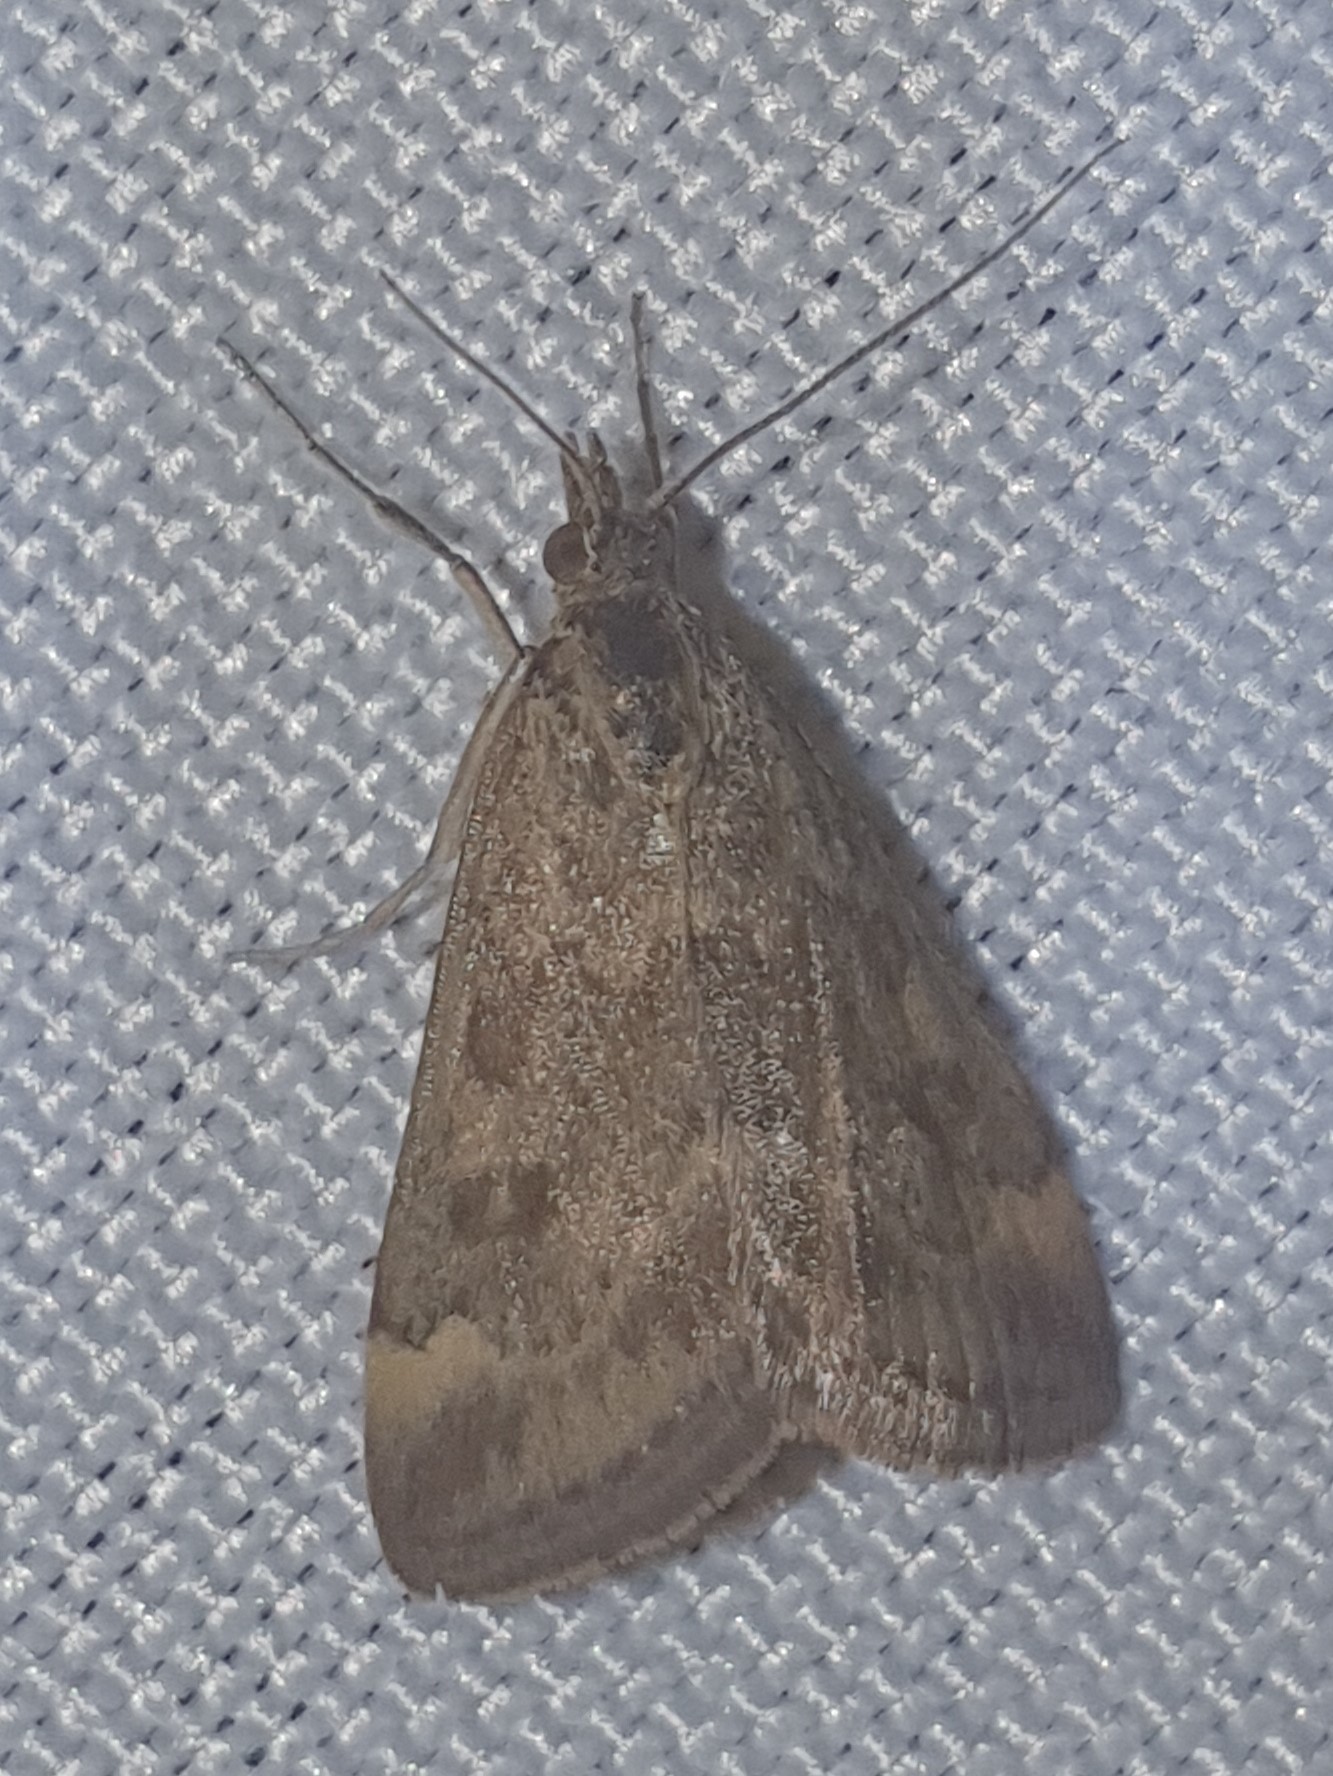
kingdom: Animalia
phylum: Arthropoda
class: Insecta
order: Lepidoptera
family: Crambidae
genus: Pyrausta
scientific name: Pyrausta despicata
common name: Straw-barred pearl
